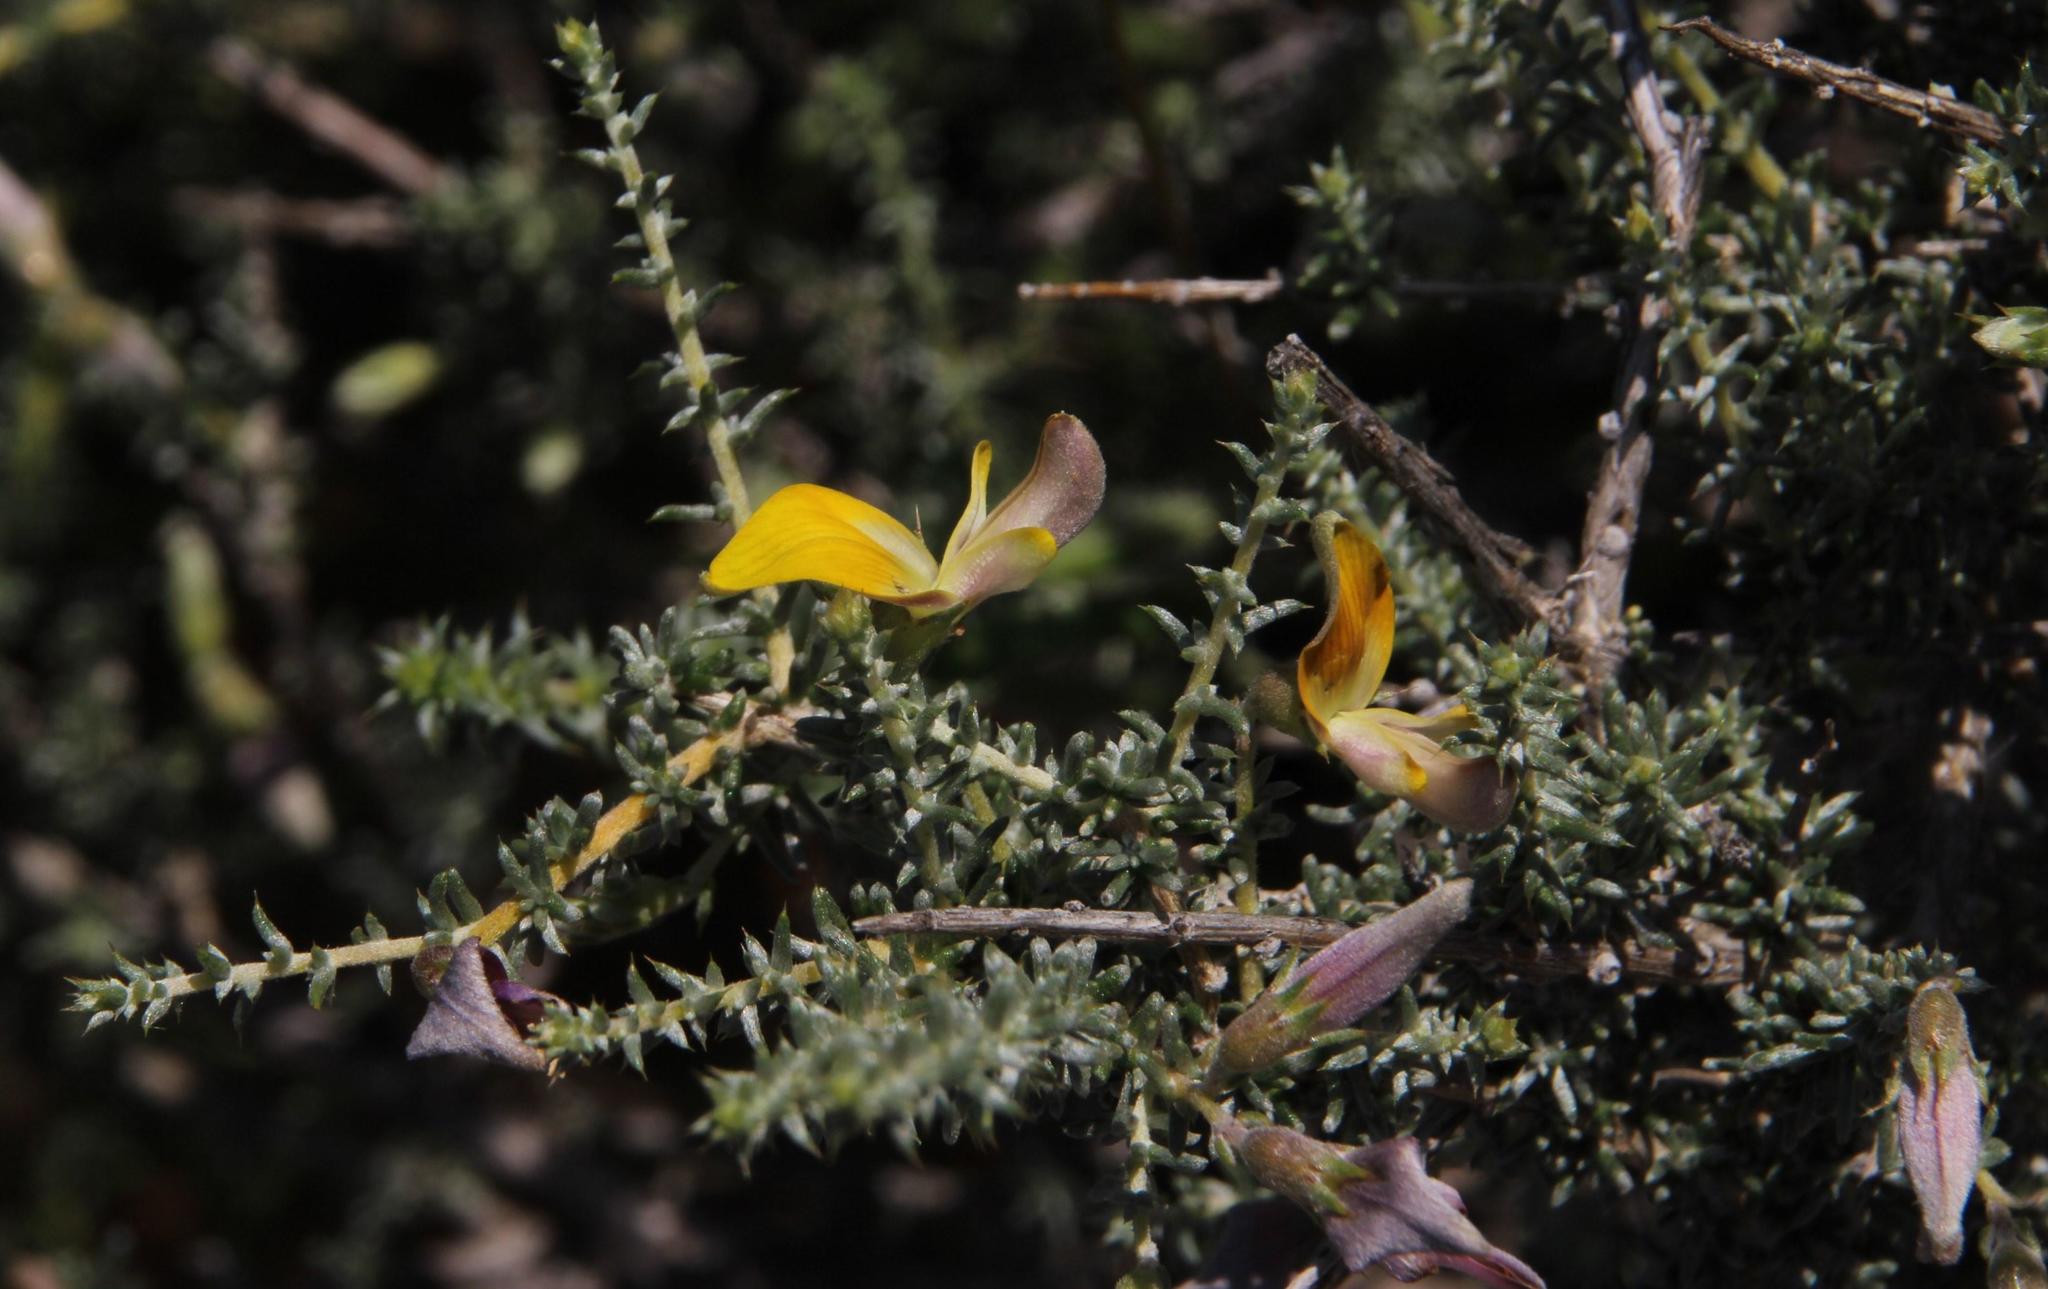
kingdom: Plantae
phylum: Tracheophyta
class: Magnoliopsida
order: Fabales
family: Fabaceae
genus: Aspalathus
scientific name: Aspalathus pulicifolia
